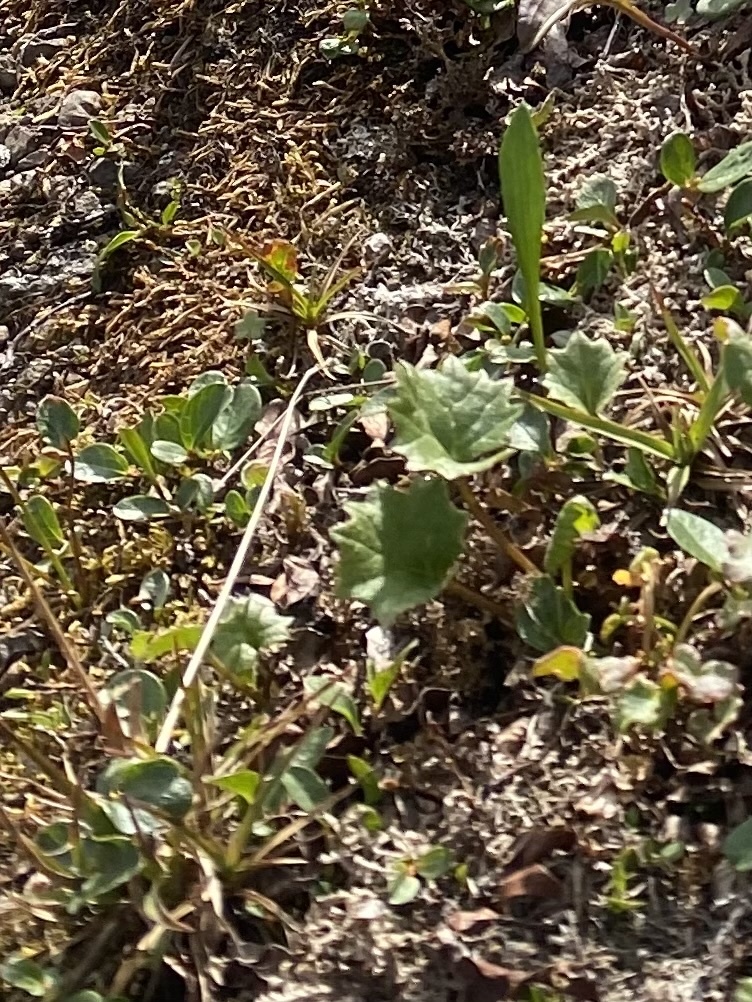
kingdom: Plantae
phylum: Tracheophyta
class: Magnoliopsida
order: Asterales
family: Asteraceae
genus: Endocellion
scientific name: Endocellion glaciale
